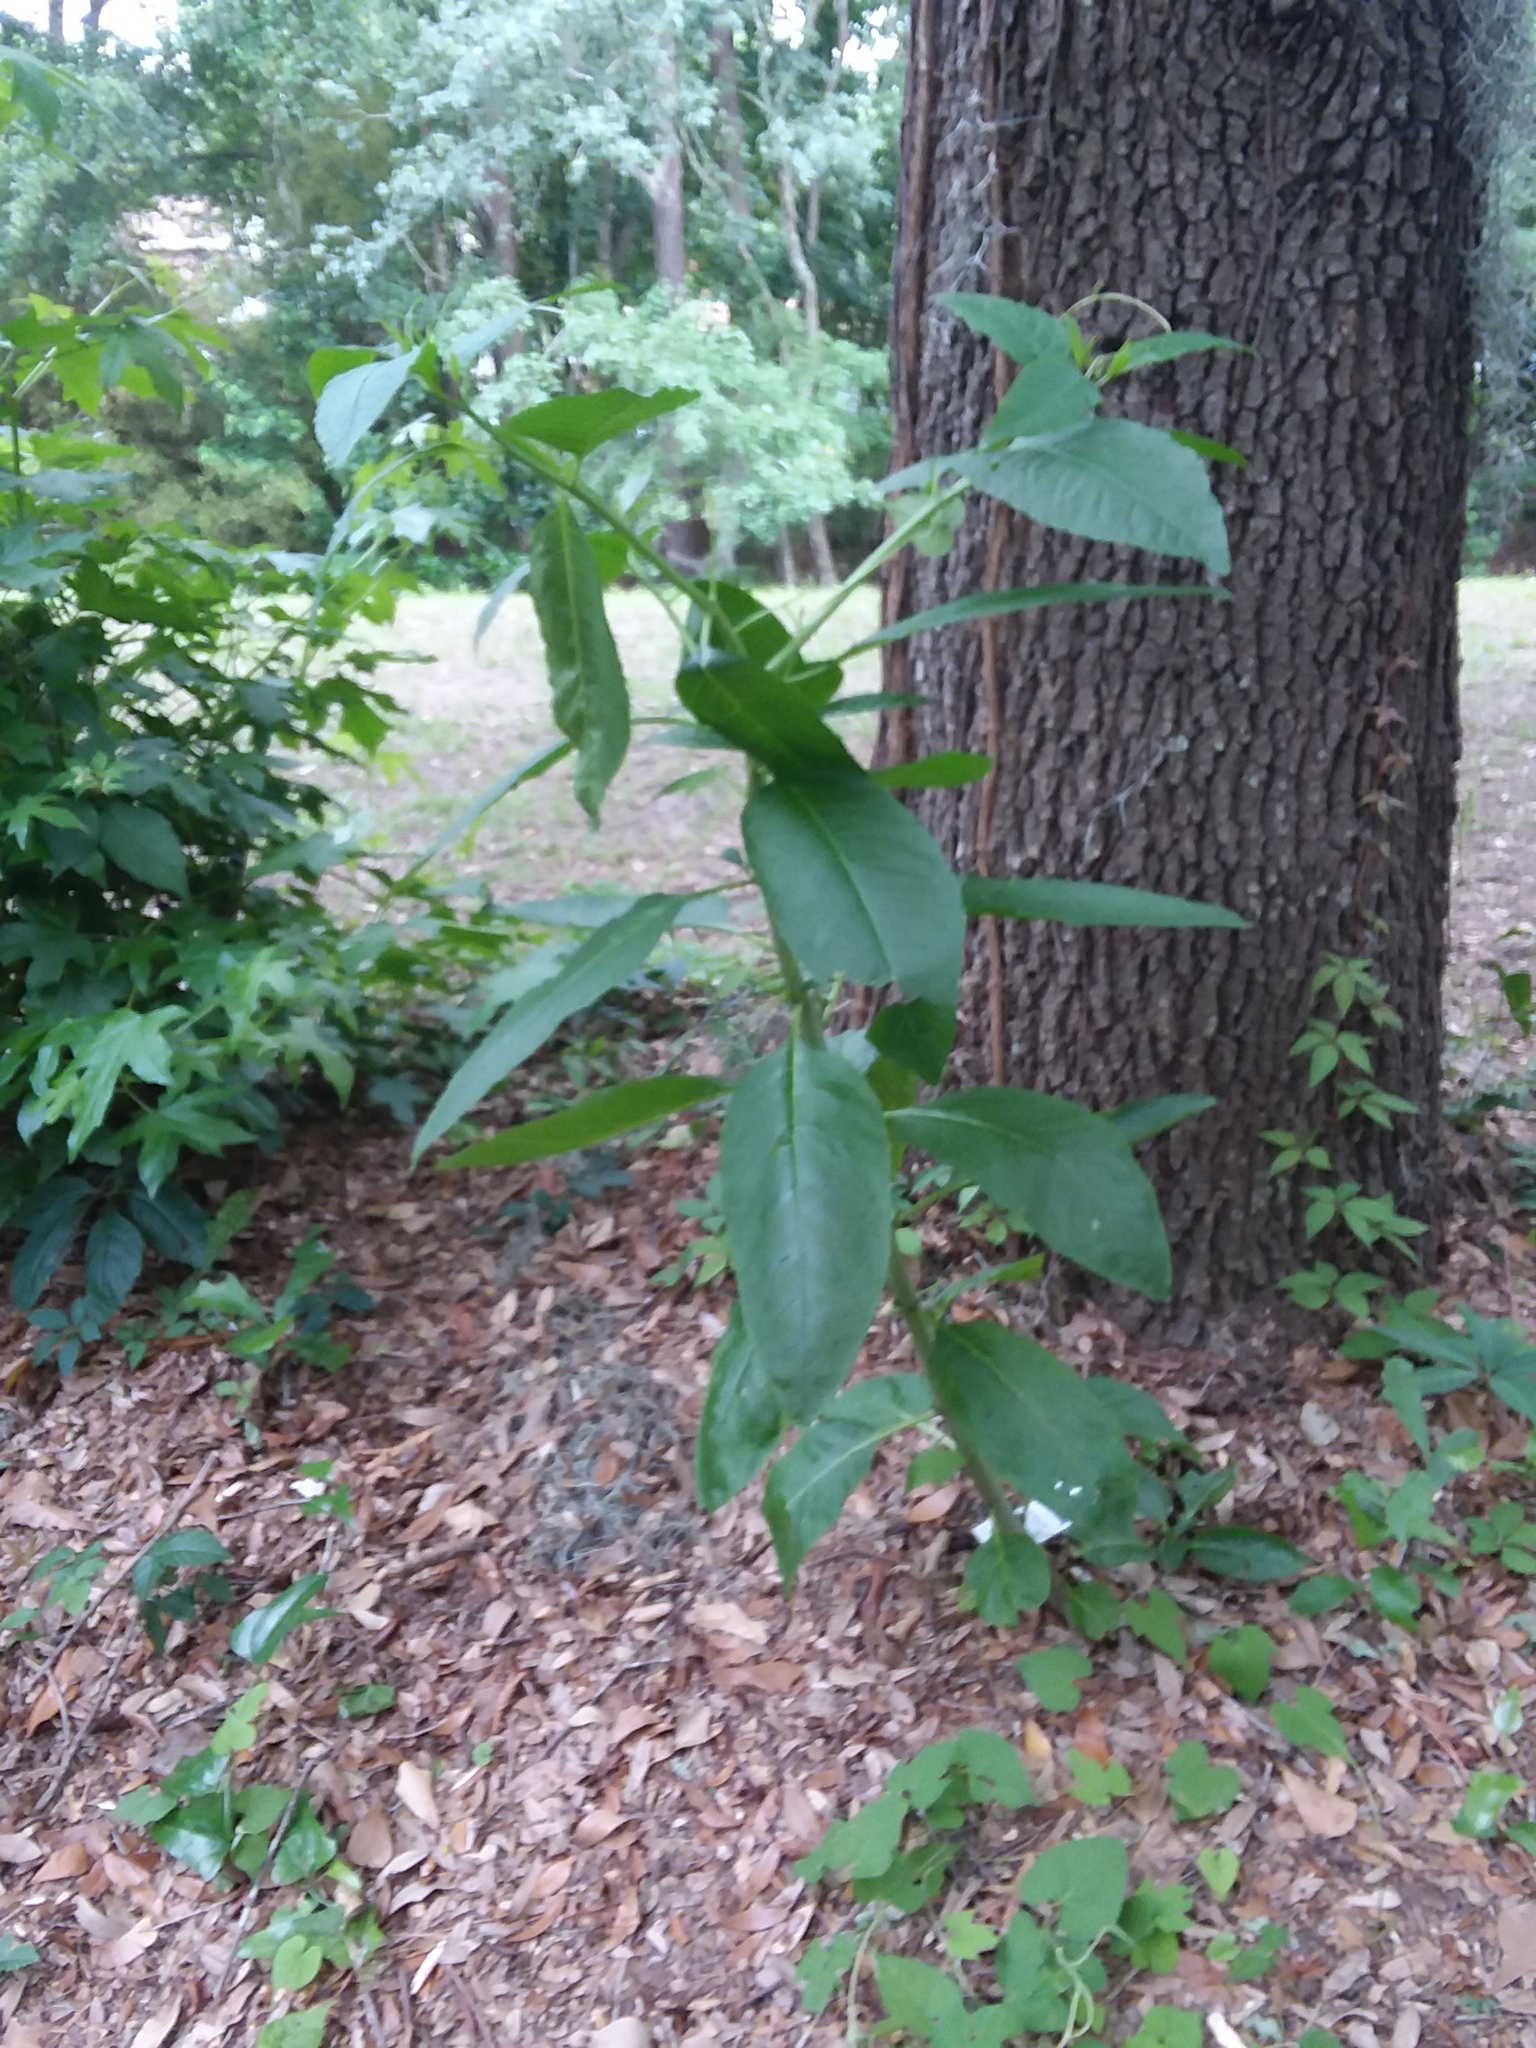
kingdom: Plantae
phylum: Tracheophyta
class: Magnoliopsida
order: Caryophyllales
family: Phytolaccaceae
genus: Phytolacca
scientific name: Phytolacca americana
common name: American pokeweed
